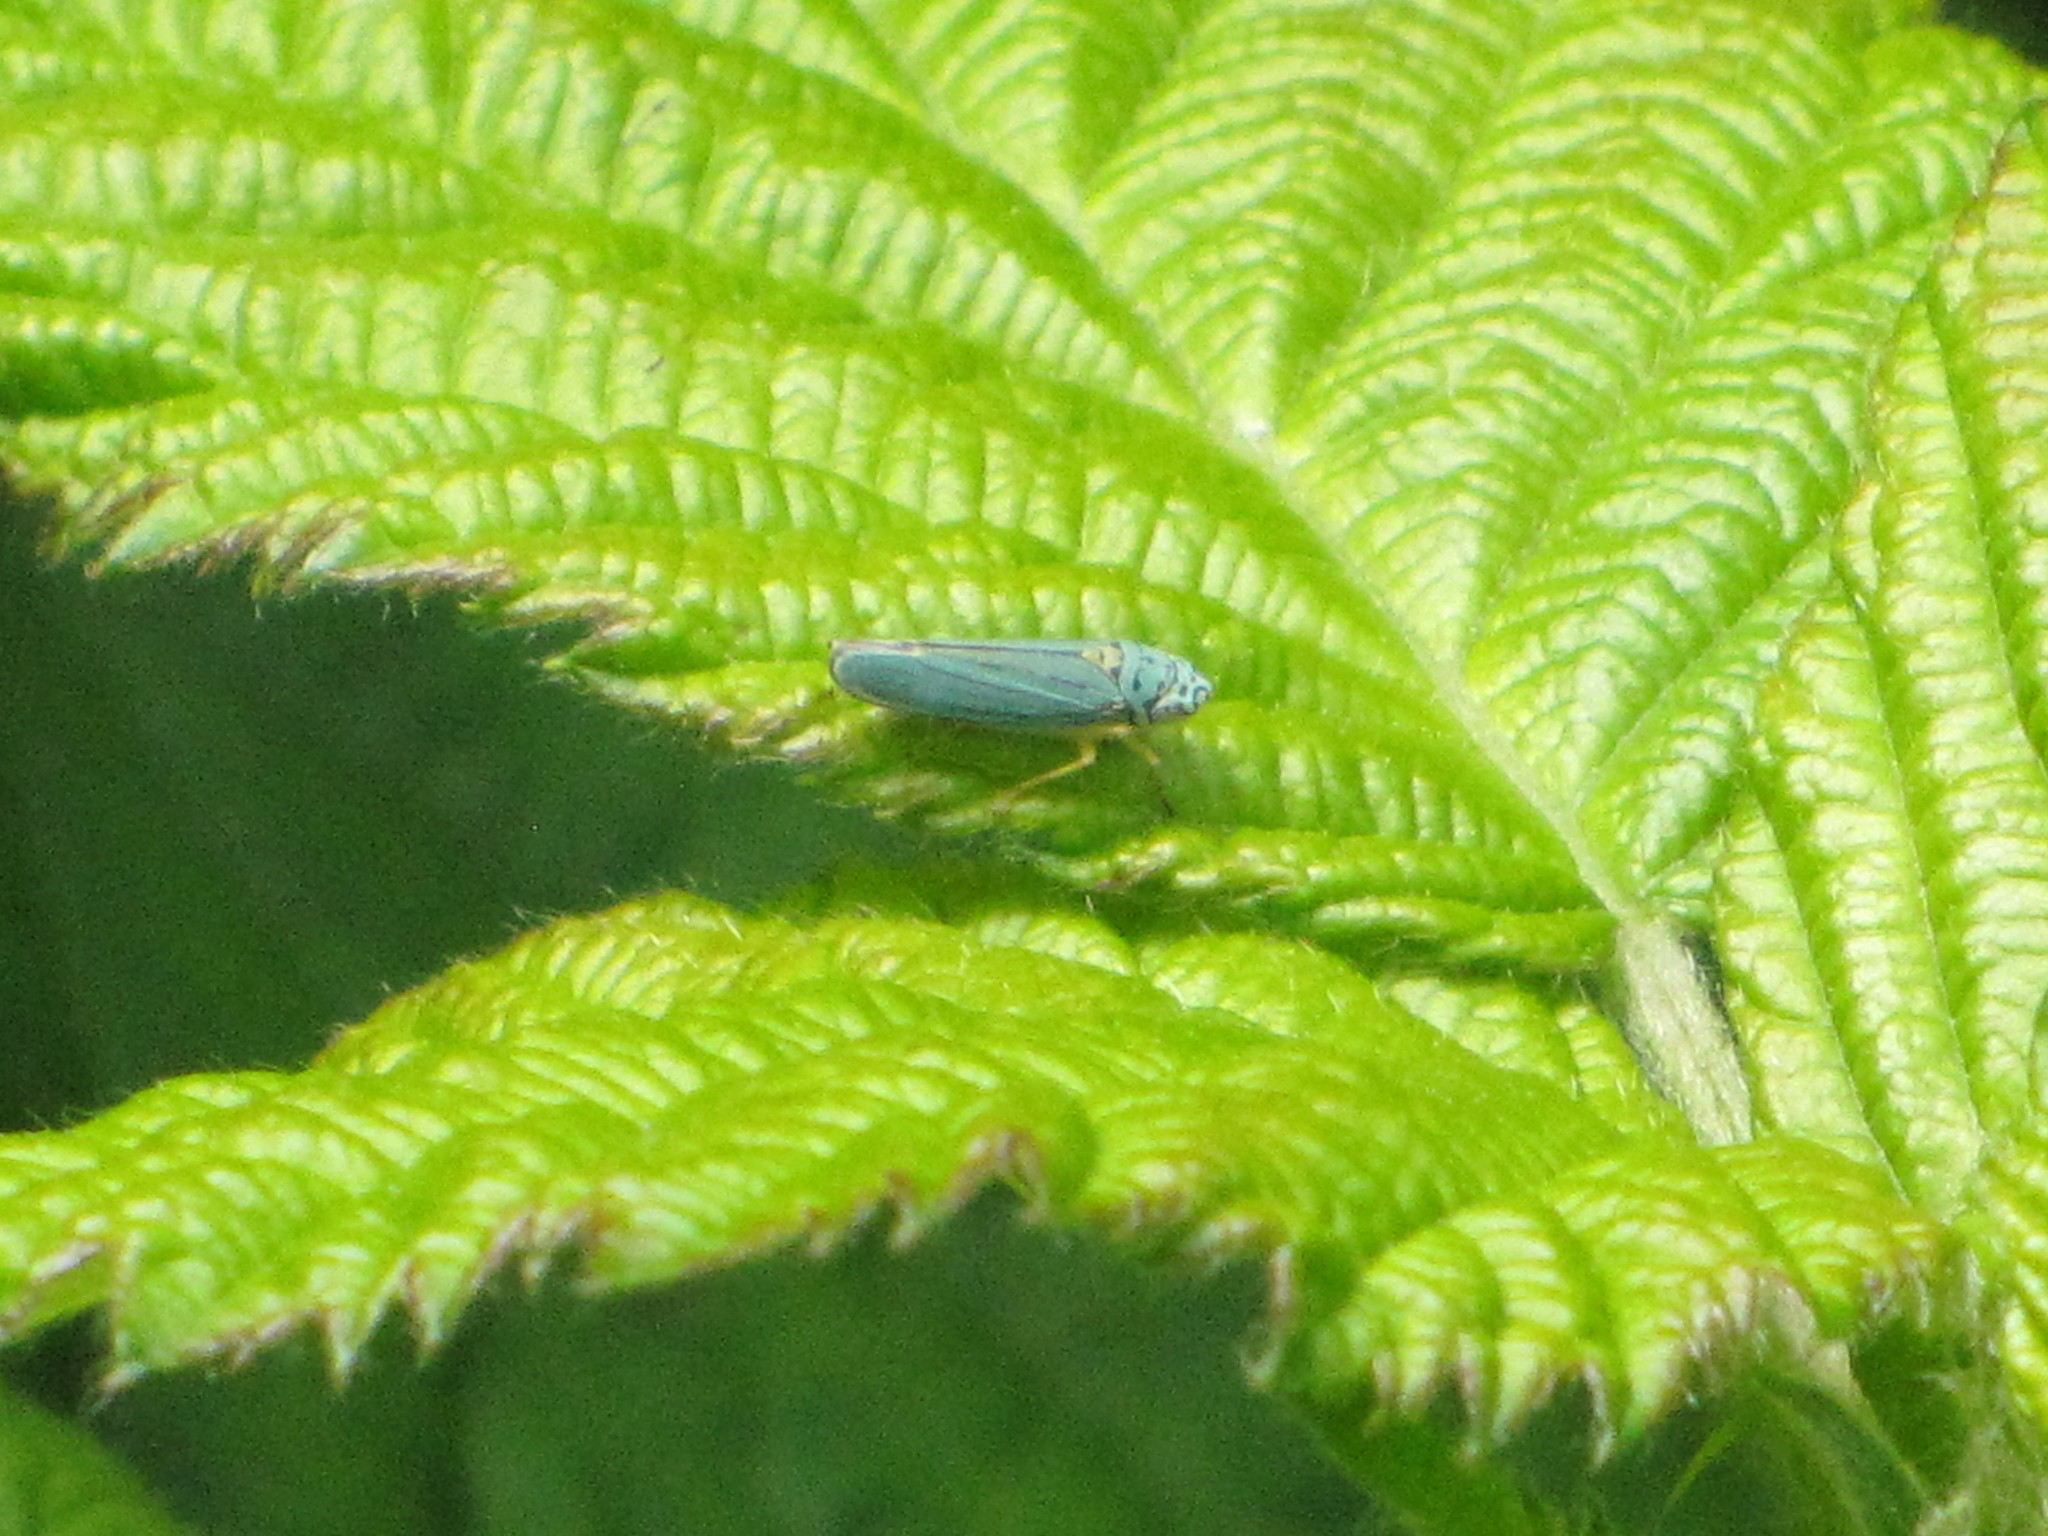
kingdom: Animalia
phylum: Arthropoda
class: Insecta
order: Hemiptera
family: Cicadellidae
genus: Graphocephala
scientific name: Graphocephala atropunctata
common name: Blue-green sharpshooter
